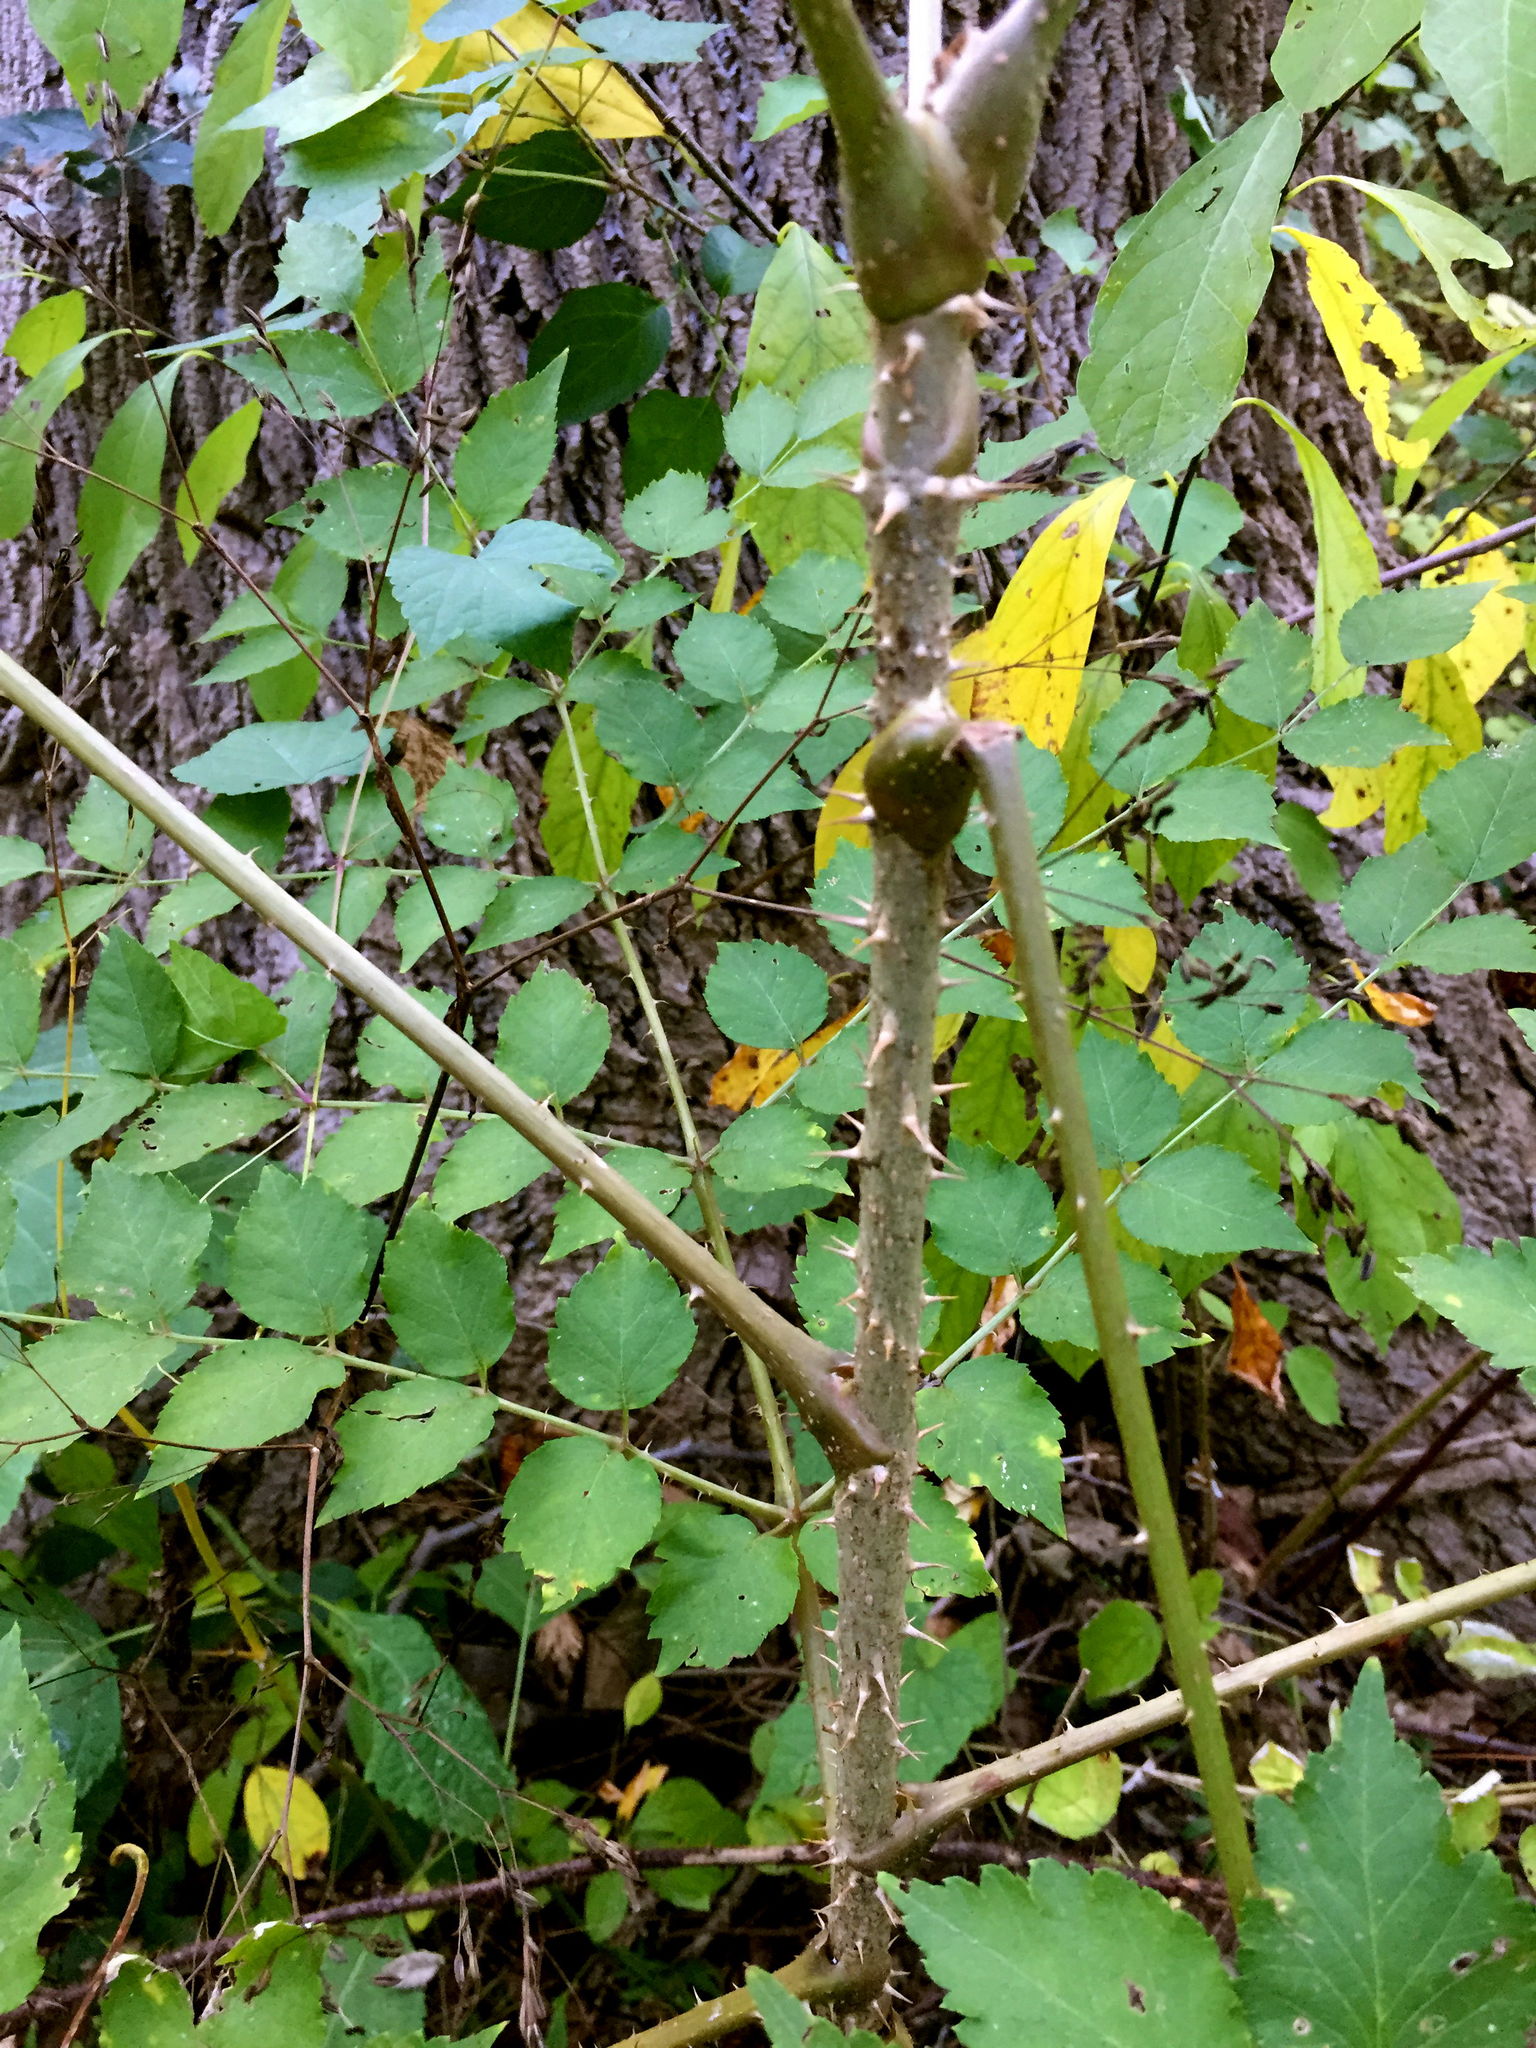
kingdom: Plantae
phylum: Tracheophyta
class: Magnoliopsida
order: Apiales
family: Araliaceae
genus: Aralia
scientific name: Aralia spinosa
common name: Hercules'-club
